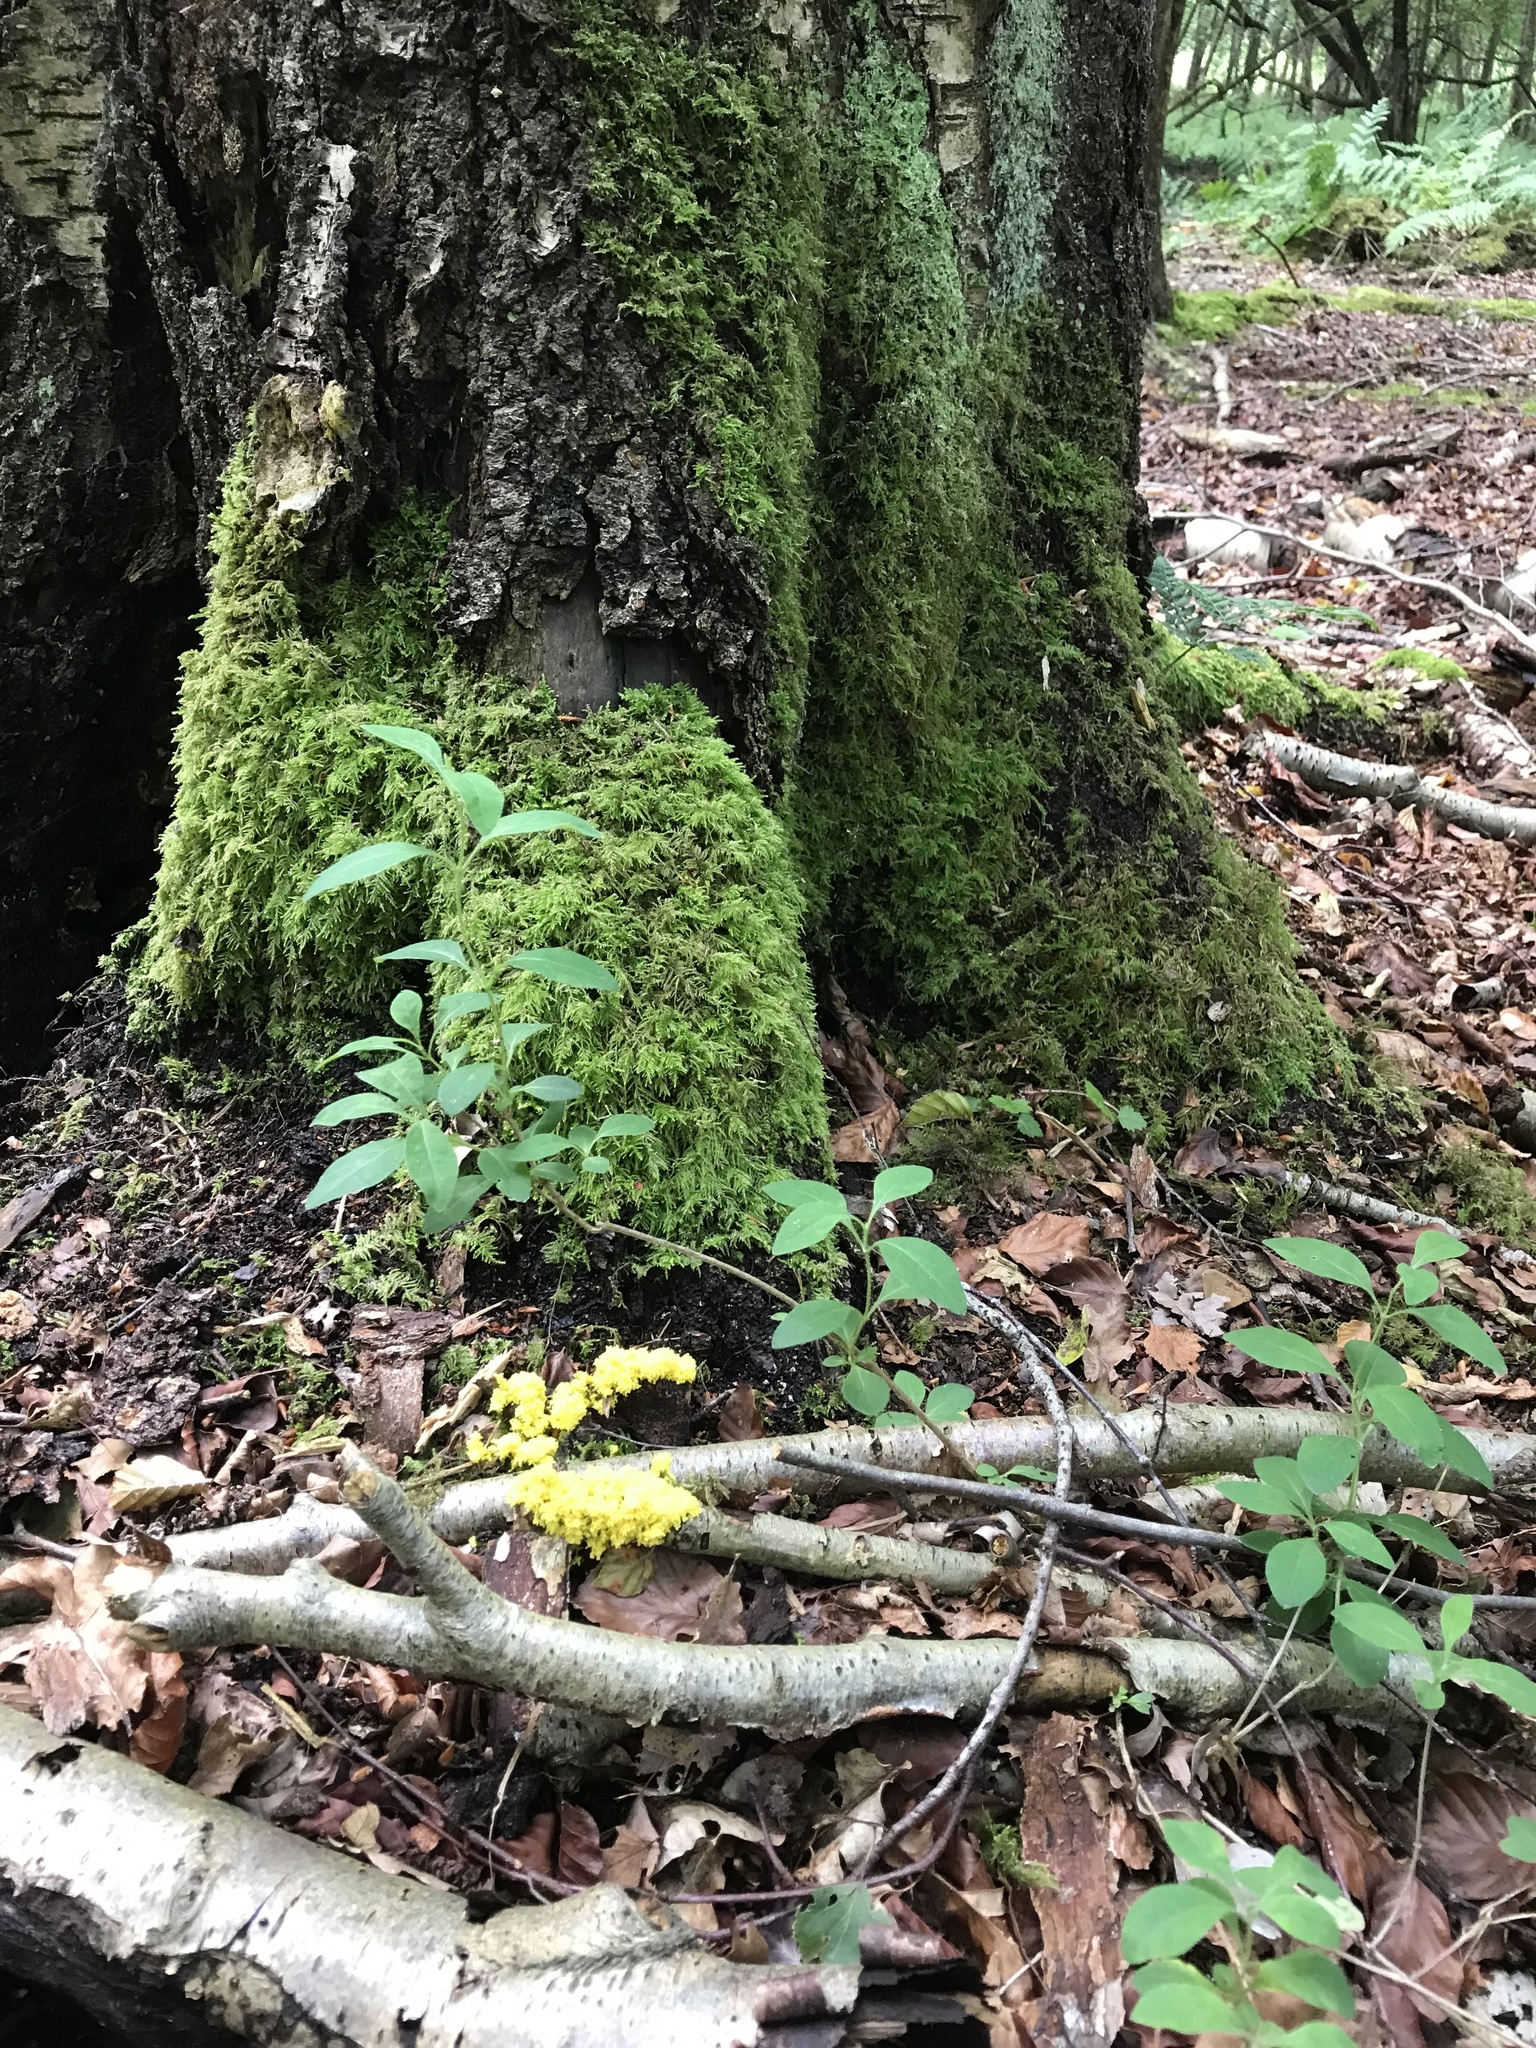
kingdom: Protozoa
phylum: Mycetozoa
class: Myxomycetes
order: Physarales
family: Physaraceae
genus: Fuligo
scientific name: Fuligo septica
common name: Dog vomit slime mold
